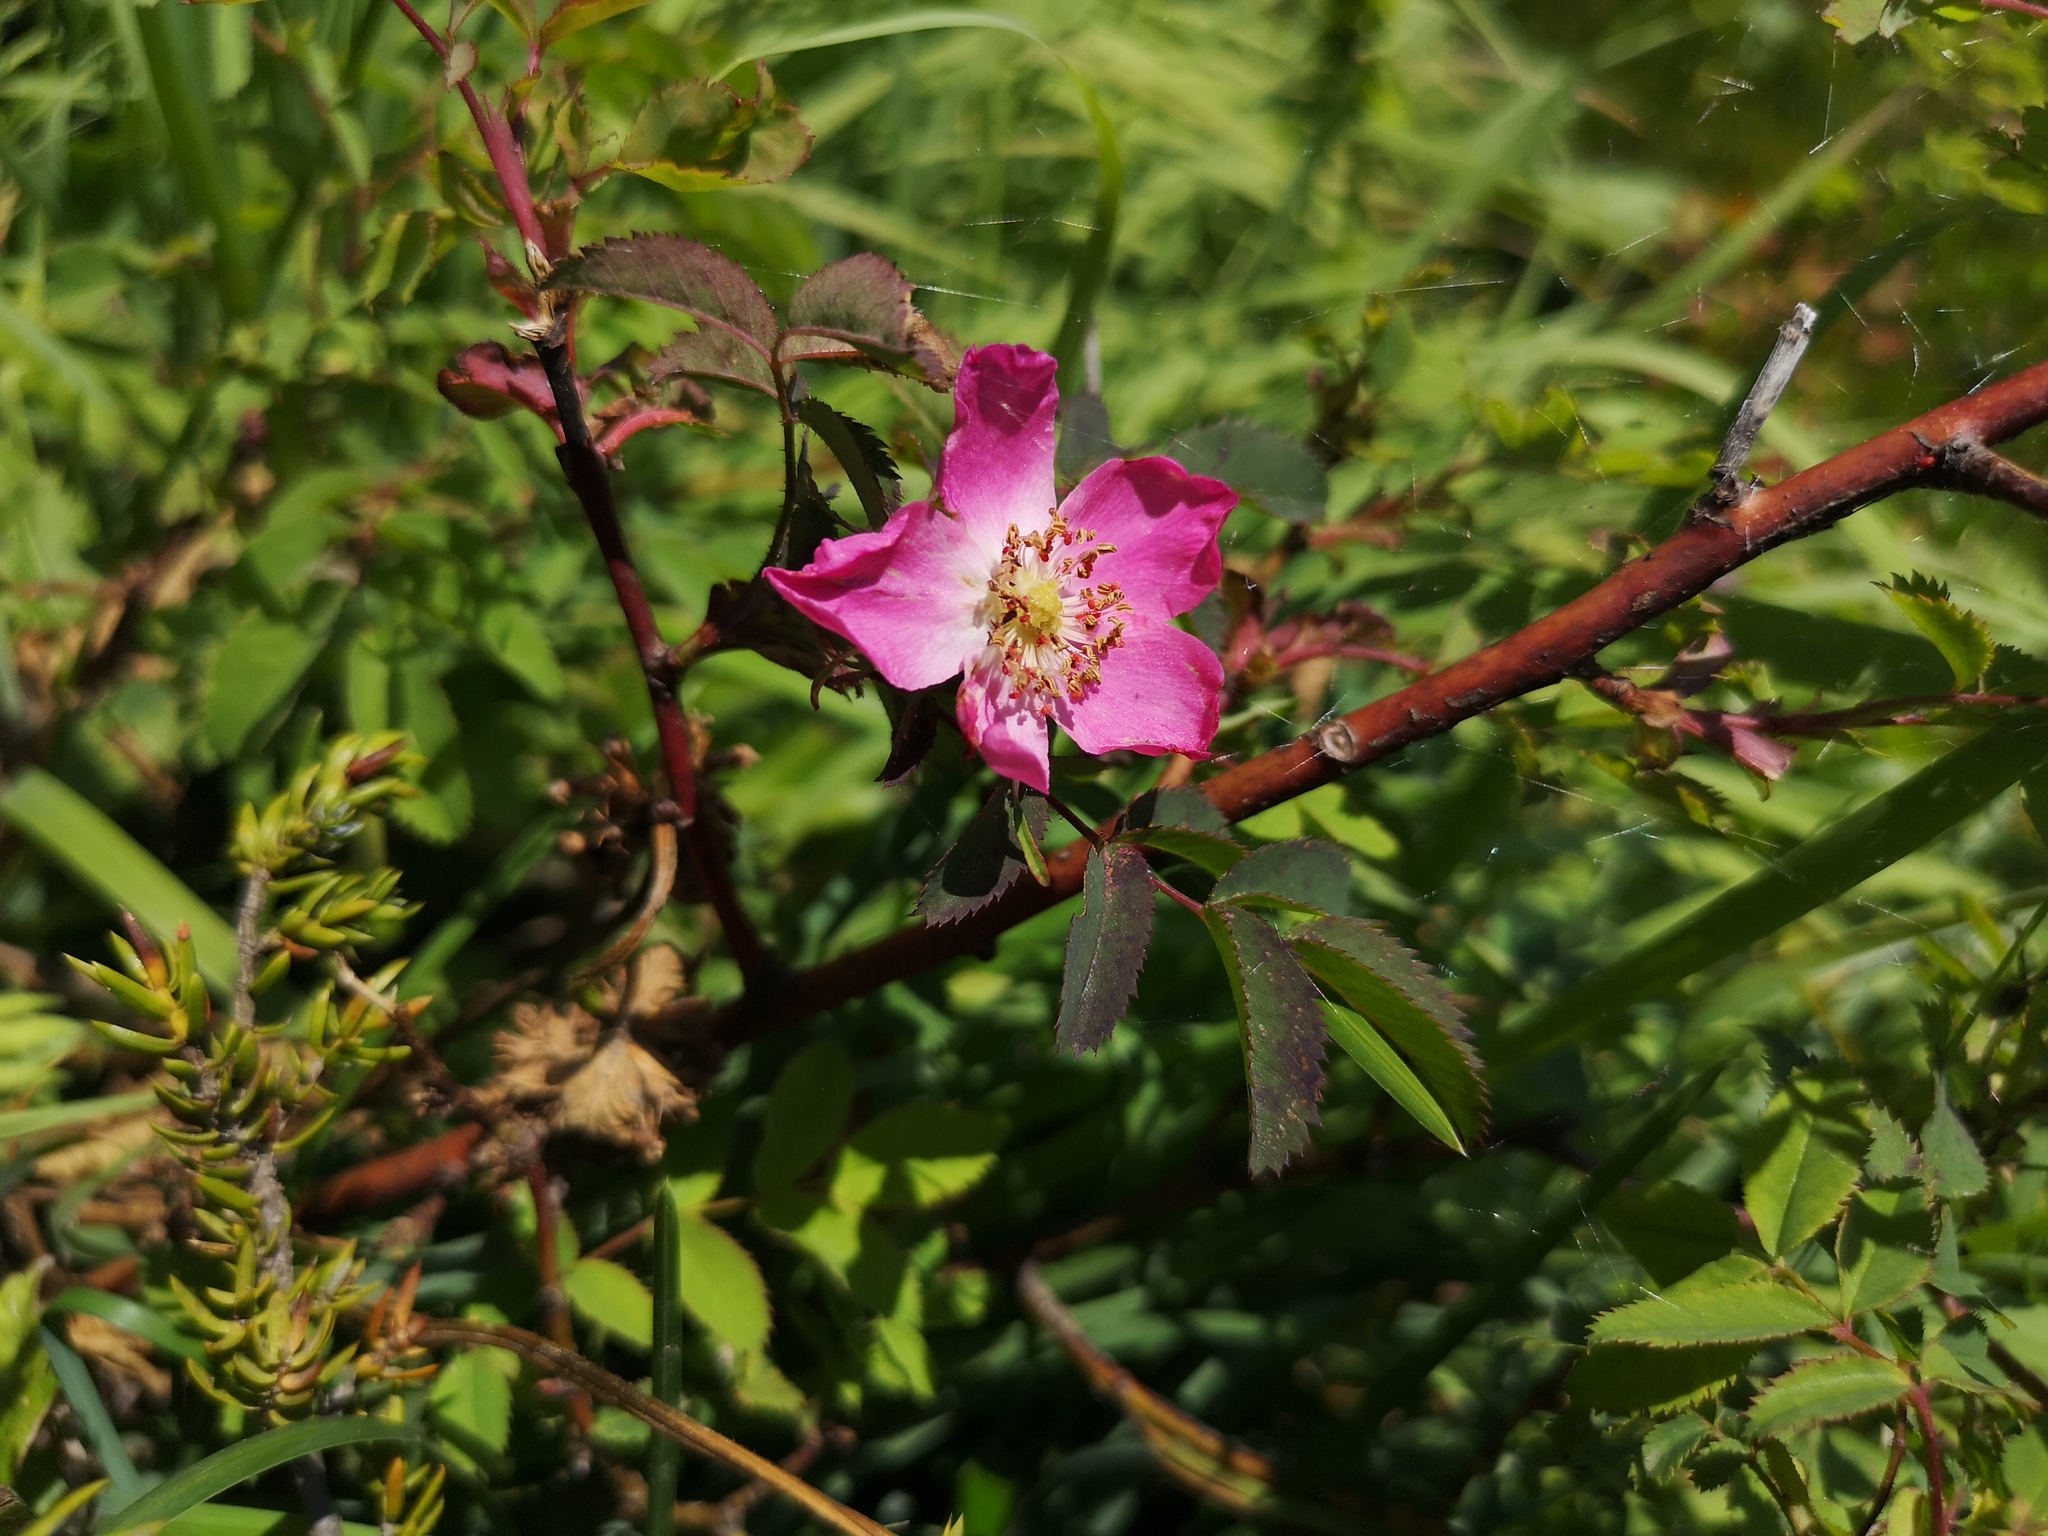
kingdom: Plantae
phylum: Tracheophyta
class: Magnoliopsida
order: Rosales
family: Rosaceae
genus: Rosa
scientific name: Rosa pendulina
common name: Alpine rose
